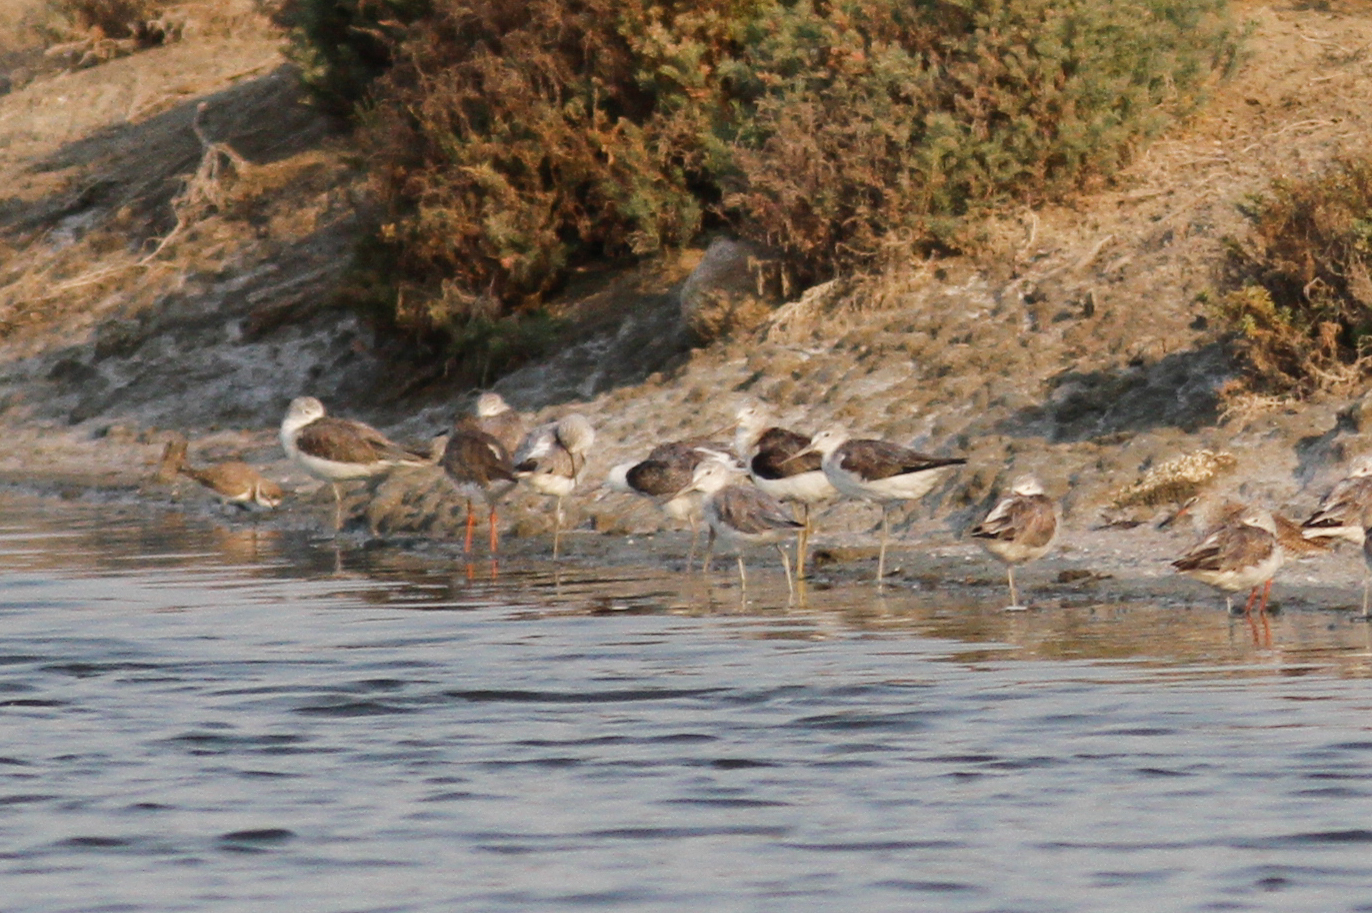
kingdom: Animalia
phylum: Chordata
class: Aves
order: Charadriiformes
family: Scolopacidae
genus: Tringa
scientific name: Tringa nebularia
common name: Common greenshank
